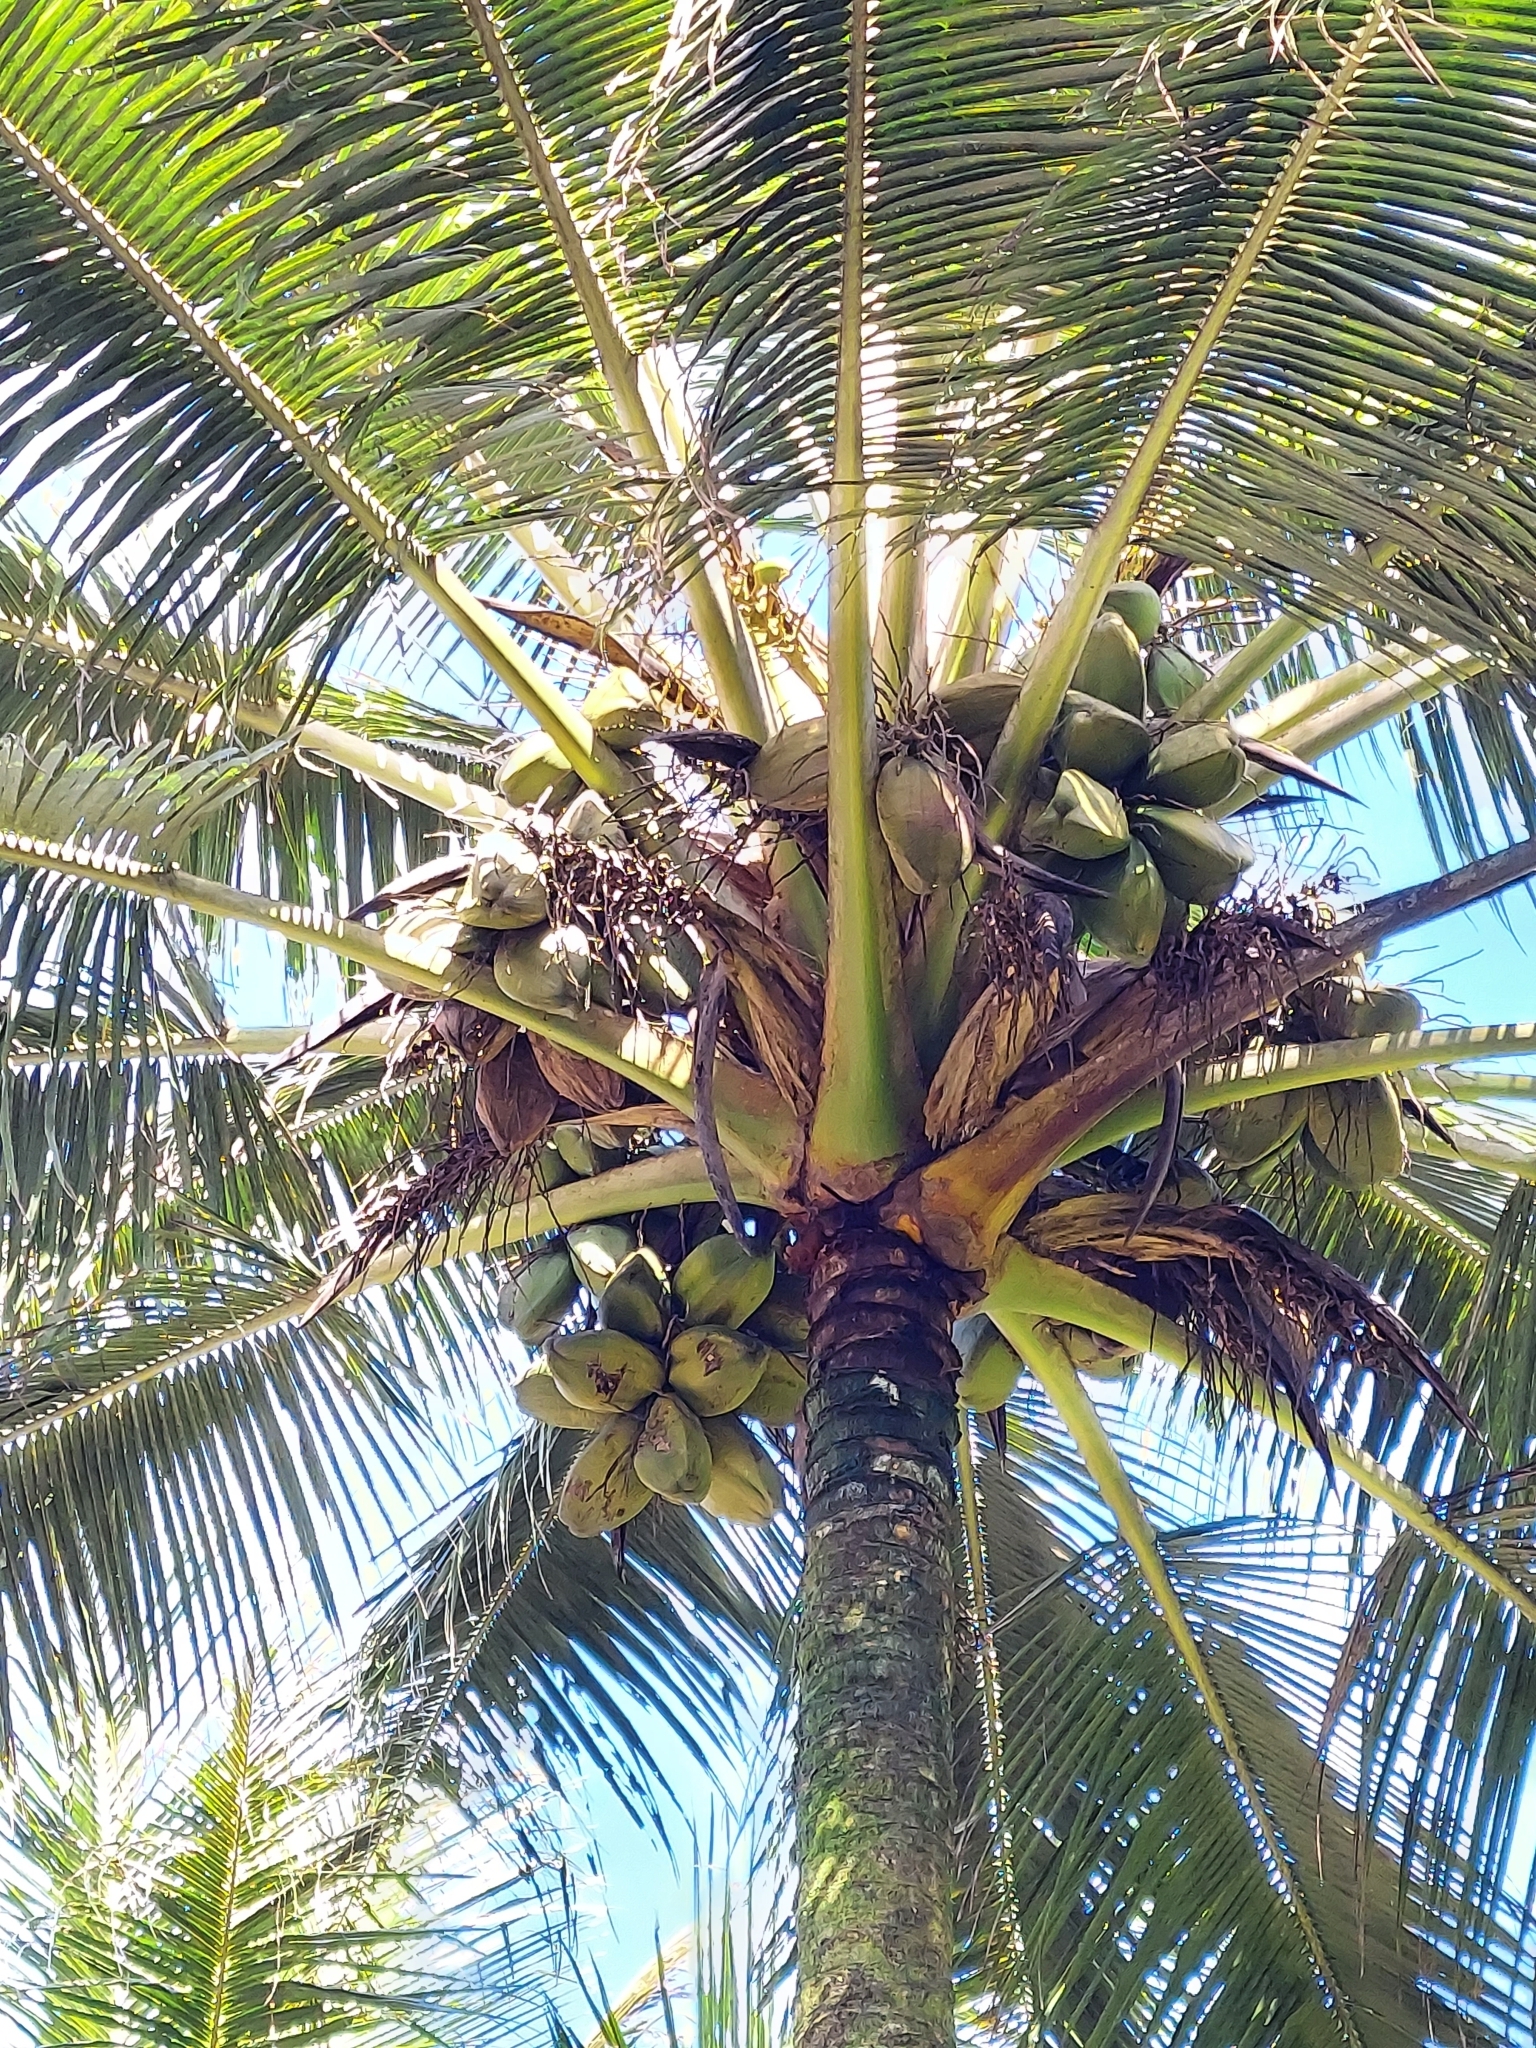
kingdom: Plantae
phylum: Tracheophyta
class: Liliopsida
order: Arecales
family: Arecaceae
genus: Cocos
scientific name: Cocos nucifera
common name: Coconut palm
